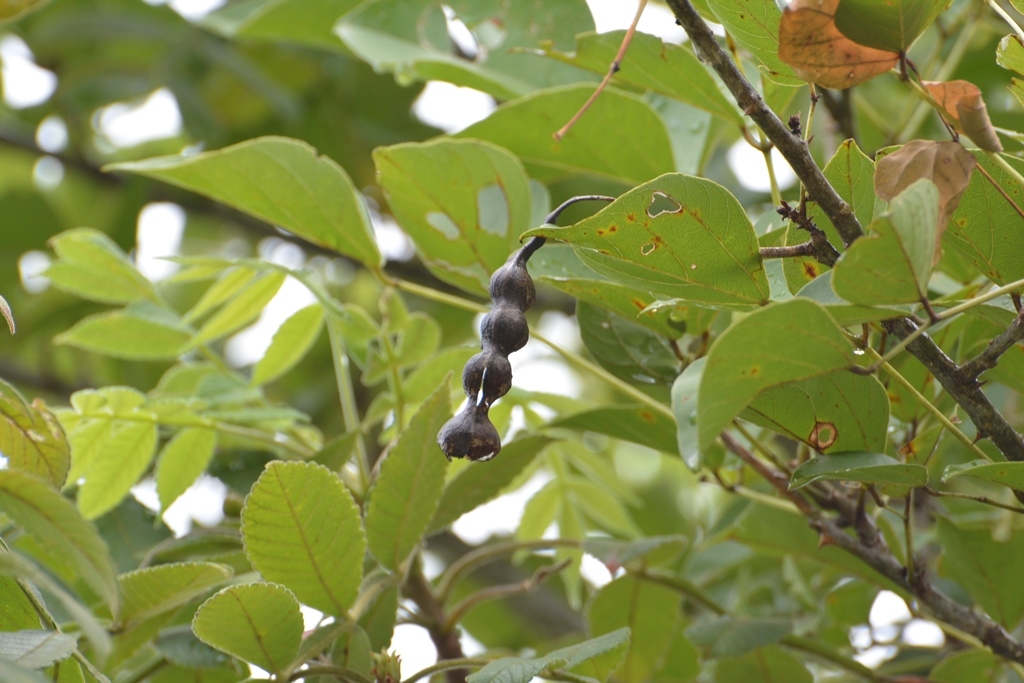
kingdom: Plantae
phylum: Tracheophyta
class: Magnoliopsida
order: Fabales
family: Fabaceae
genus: Erythrina
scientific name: Erythrina berteroana
